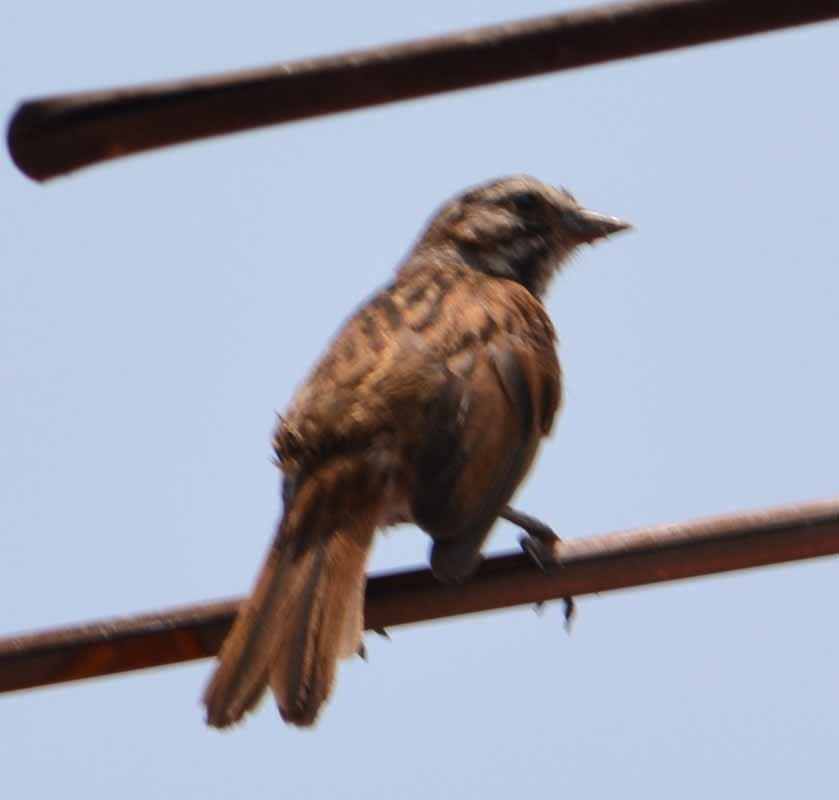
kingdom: Animalia
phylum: Chordata
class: Aves
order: Passeriformes
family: Passerellidae
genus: Melospiza
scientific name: Melospiza melodia
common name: Song sparrow
